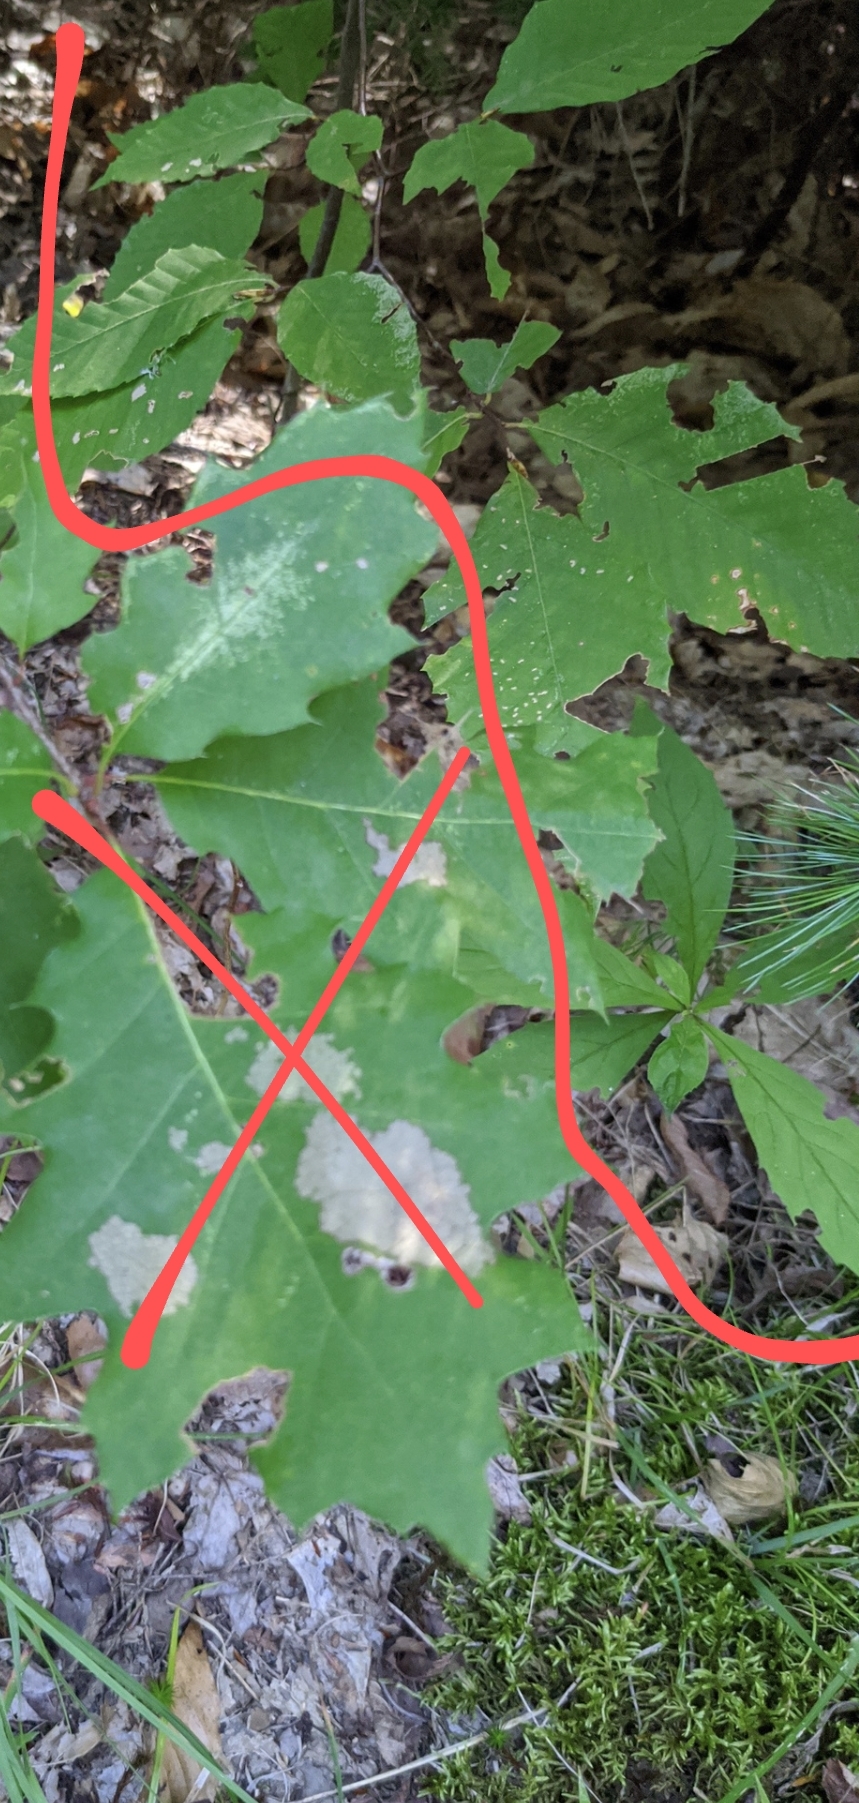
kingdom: Plantae
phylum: Tracheophyta
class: Magnoliopsida
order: Fagales
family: Fagaceae
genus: Fagus
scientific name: Fagus grandifolia
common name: American beech
